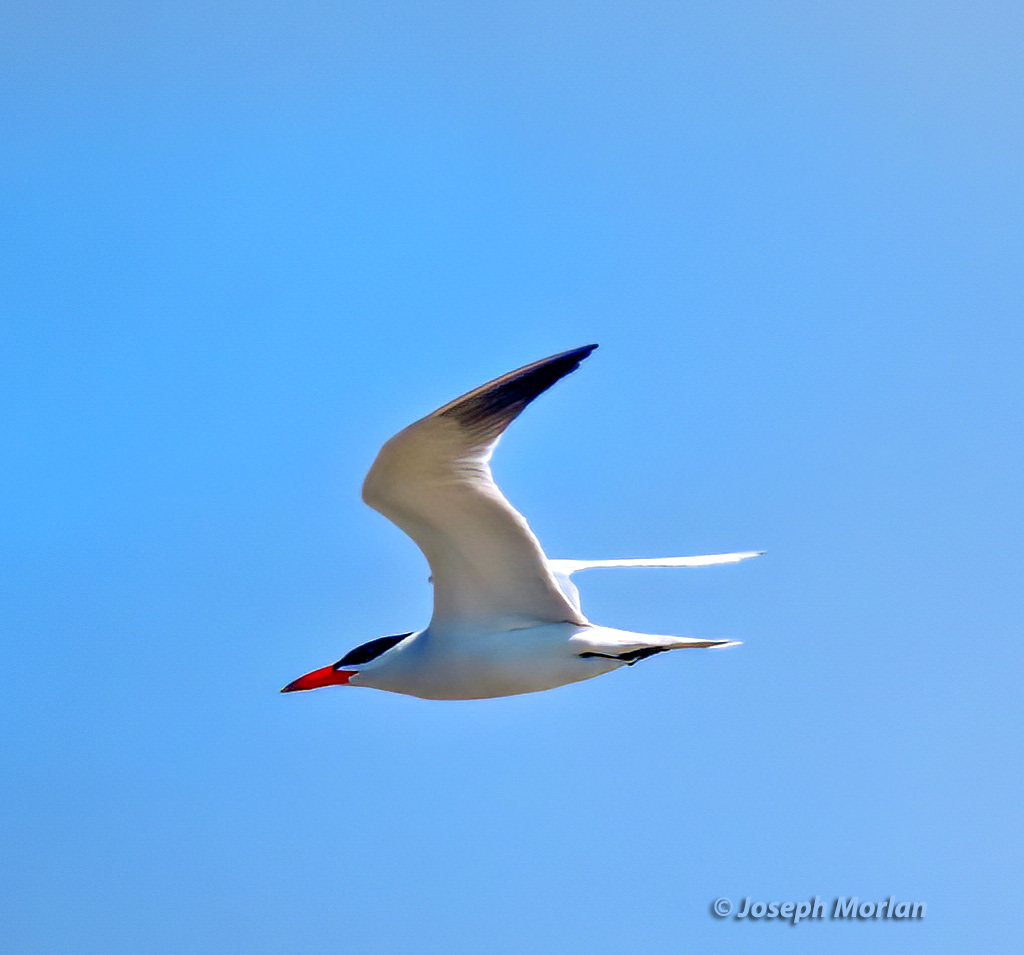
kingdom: Animalia
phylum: Chordata
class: Aves
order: Charadriiformes
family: Laridae
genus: Hydroprogne
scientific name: Hydroprogne caspia
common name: Caspian tern
